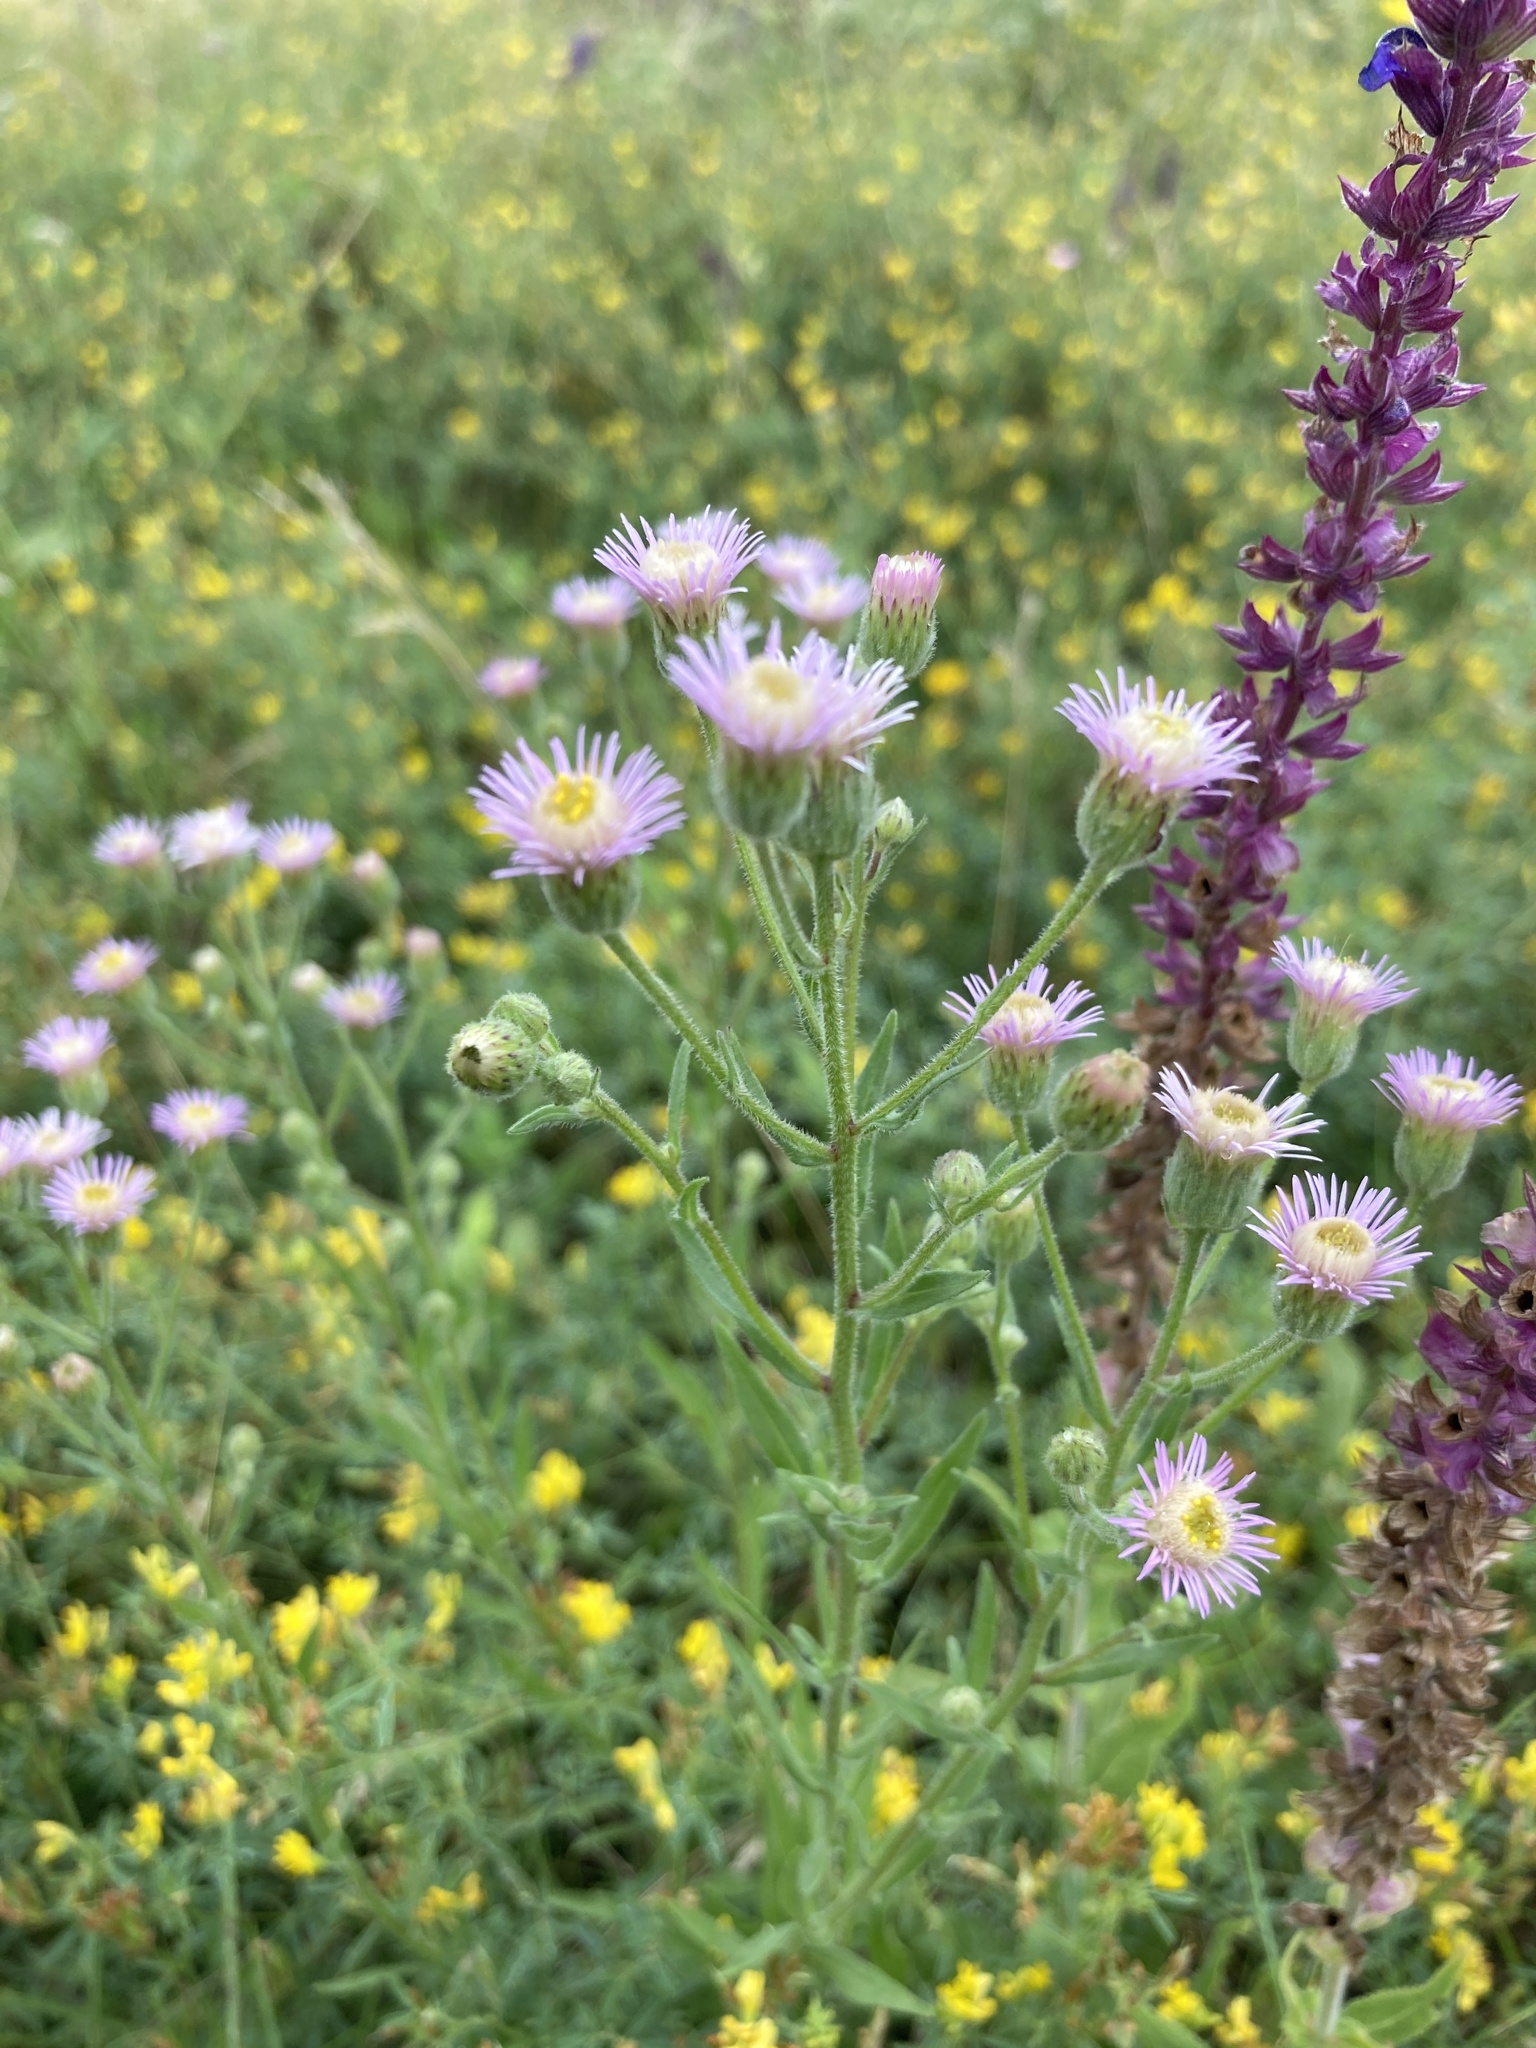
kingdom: Plantae
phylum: Tracheophyta
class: Magnoliopsida
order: Asterales
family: Asteraceae
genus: Erigeron
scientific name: Erigeron acris
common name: Blue fleabane
